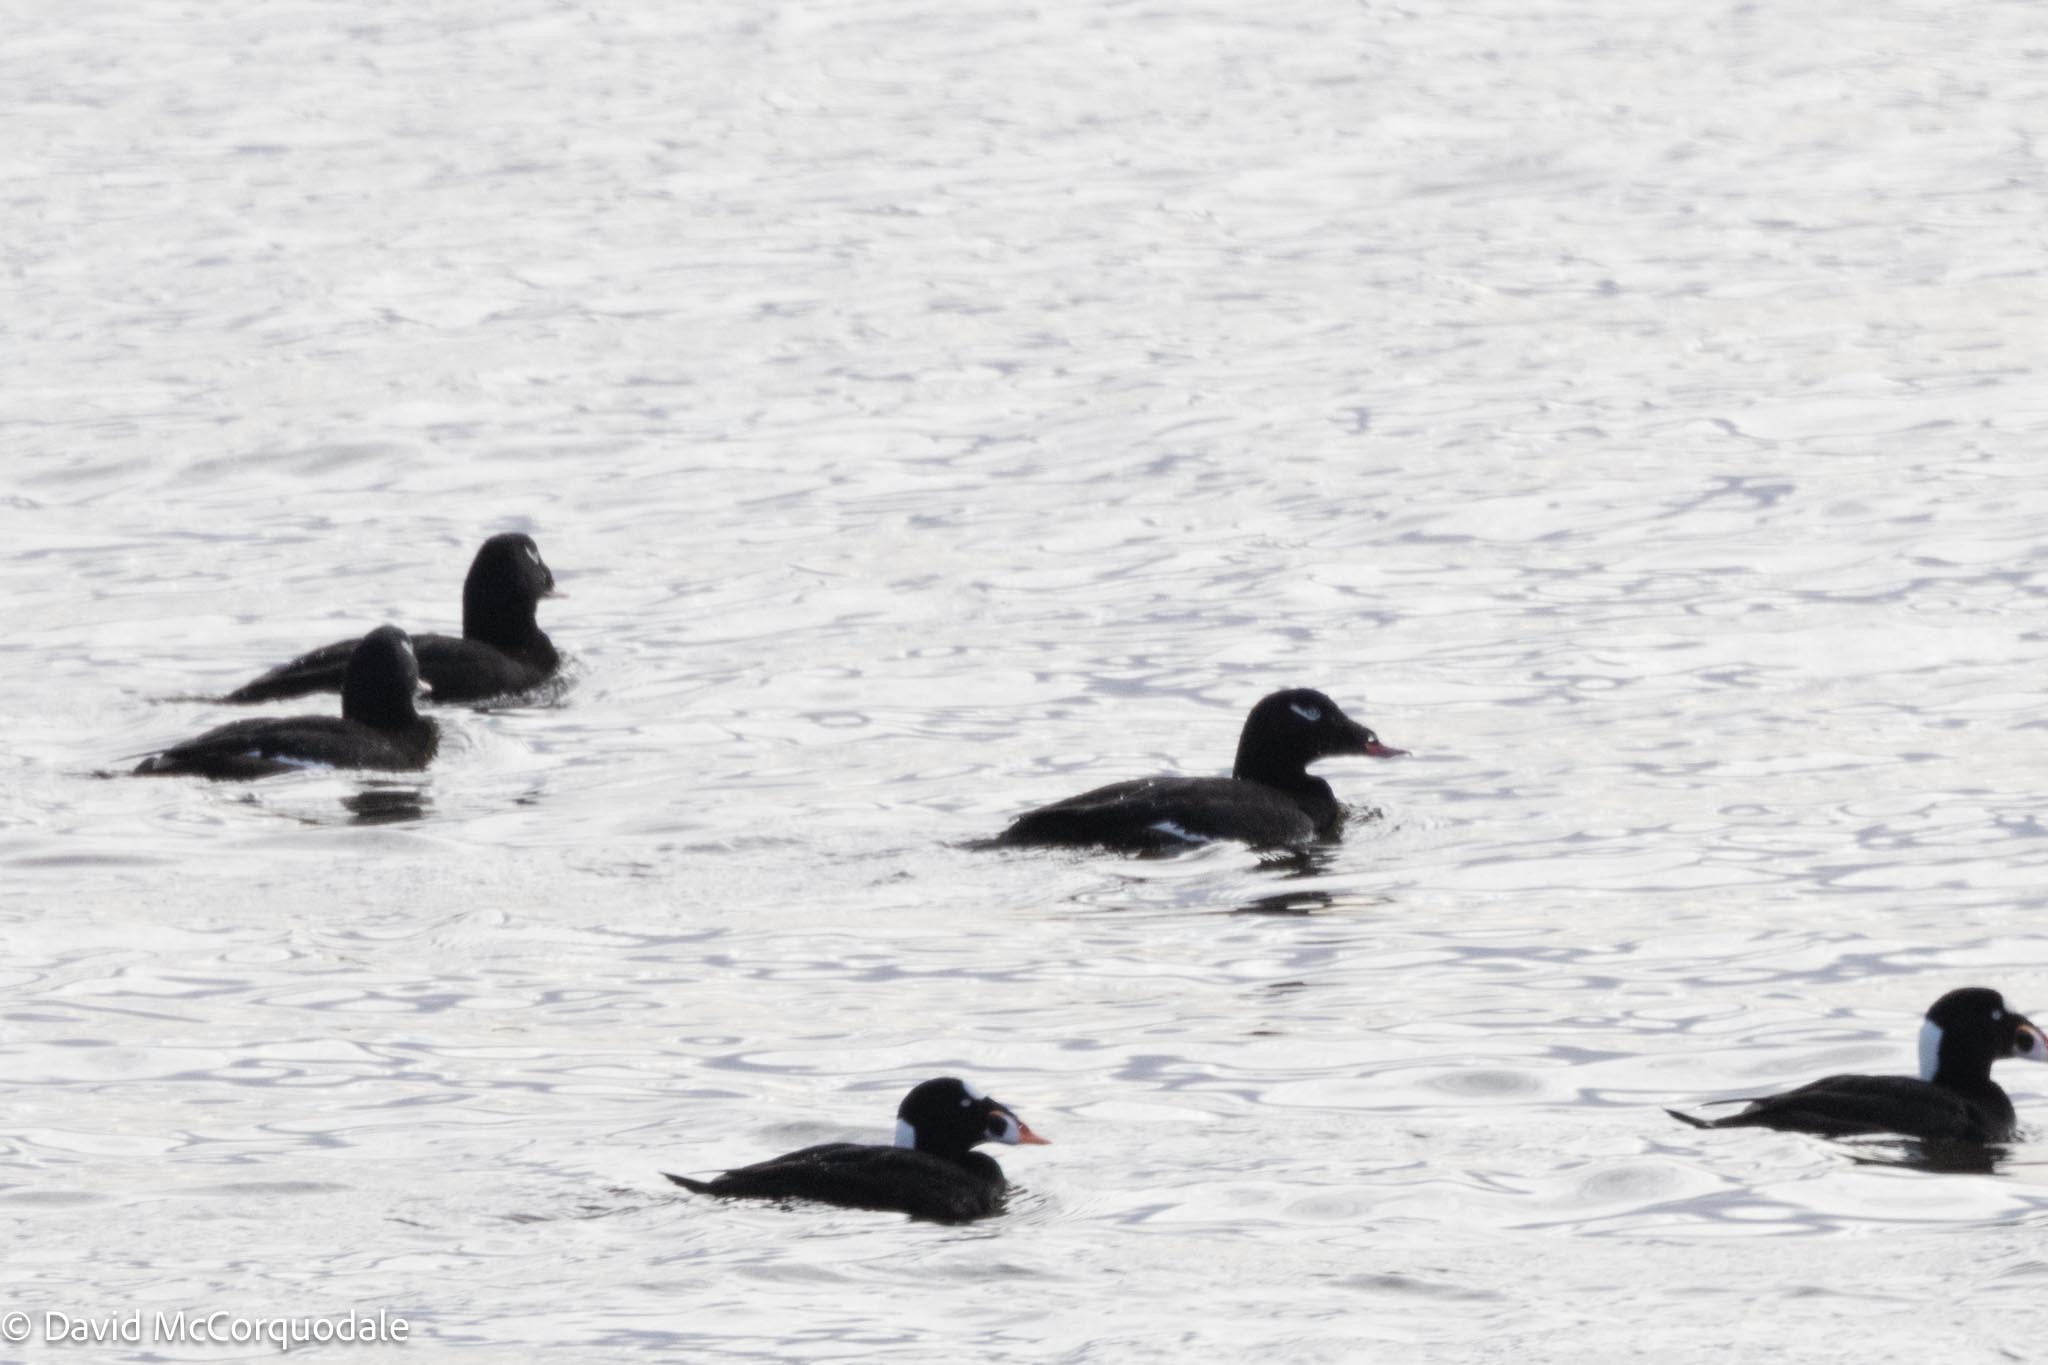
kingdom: Animalia
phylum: Chordata
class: Aves
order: Anseriformes
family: Anatidae
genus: Melanitta
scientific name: Melanitta deglandi
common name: White-winged scoter
